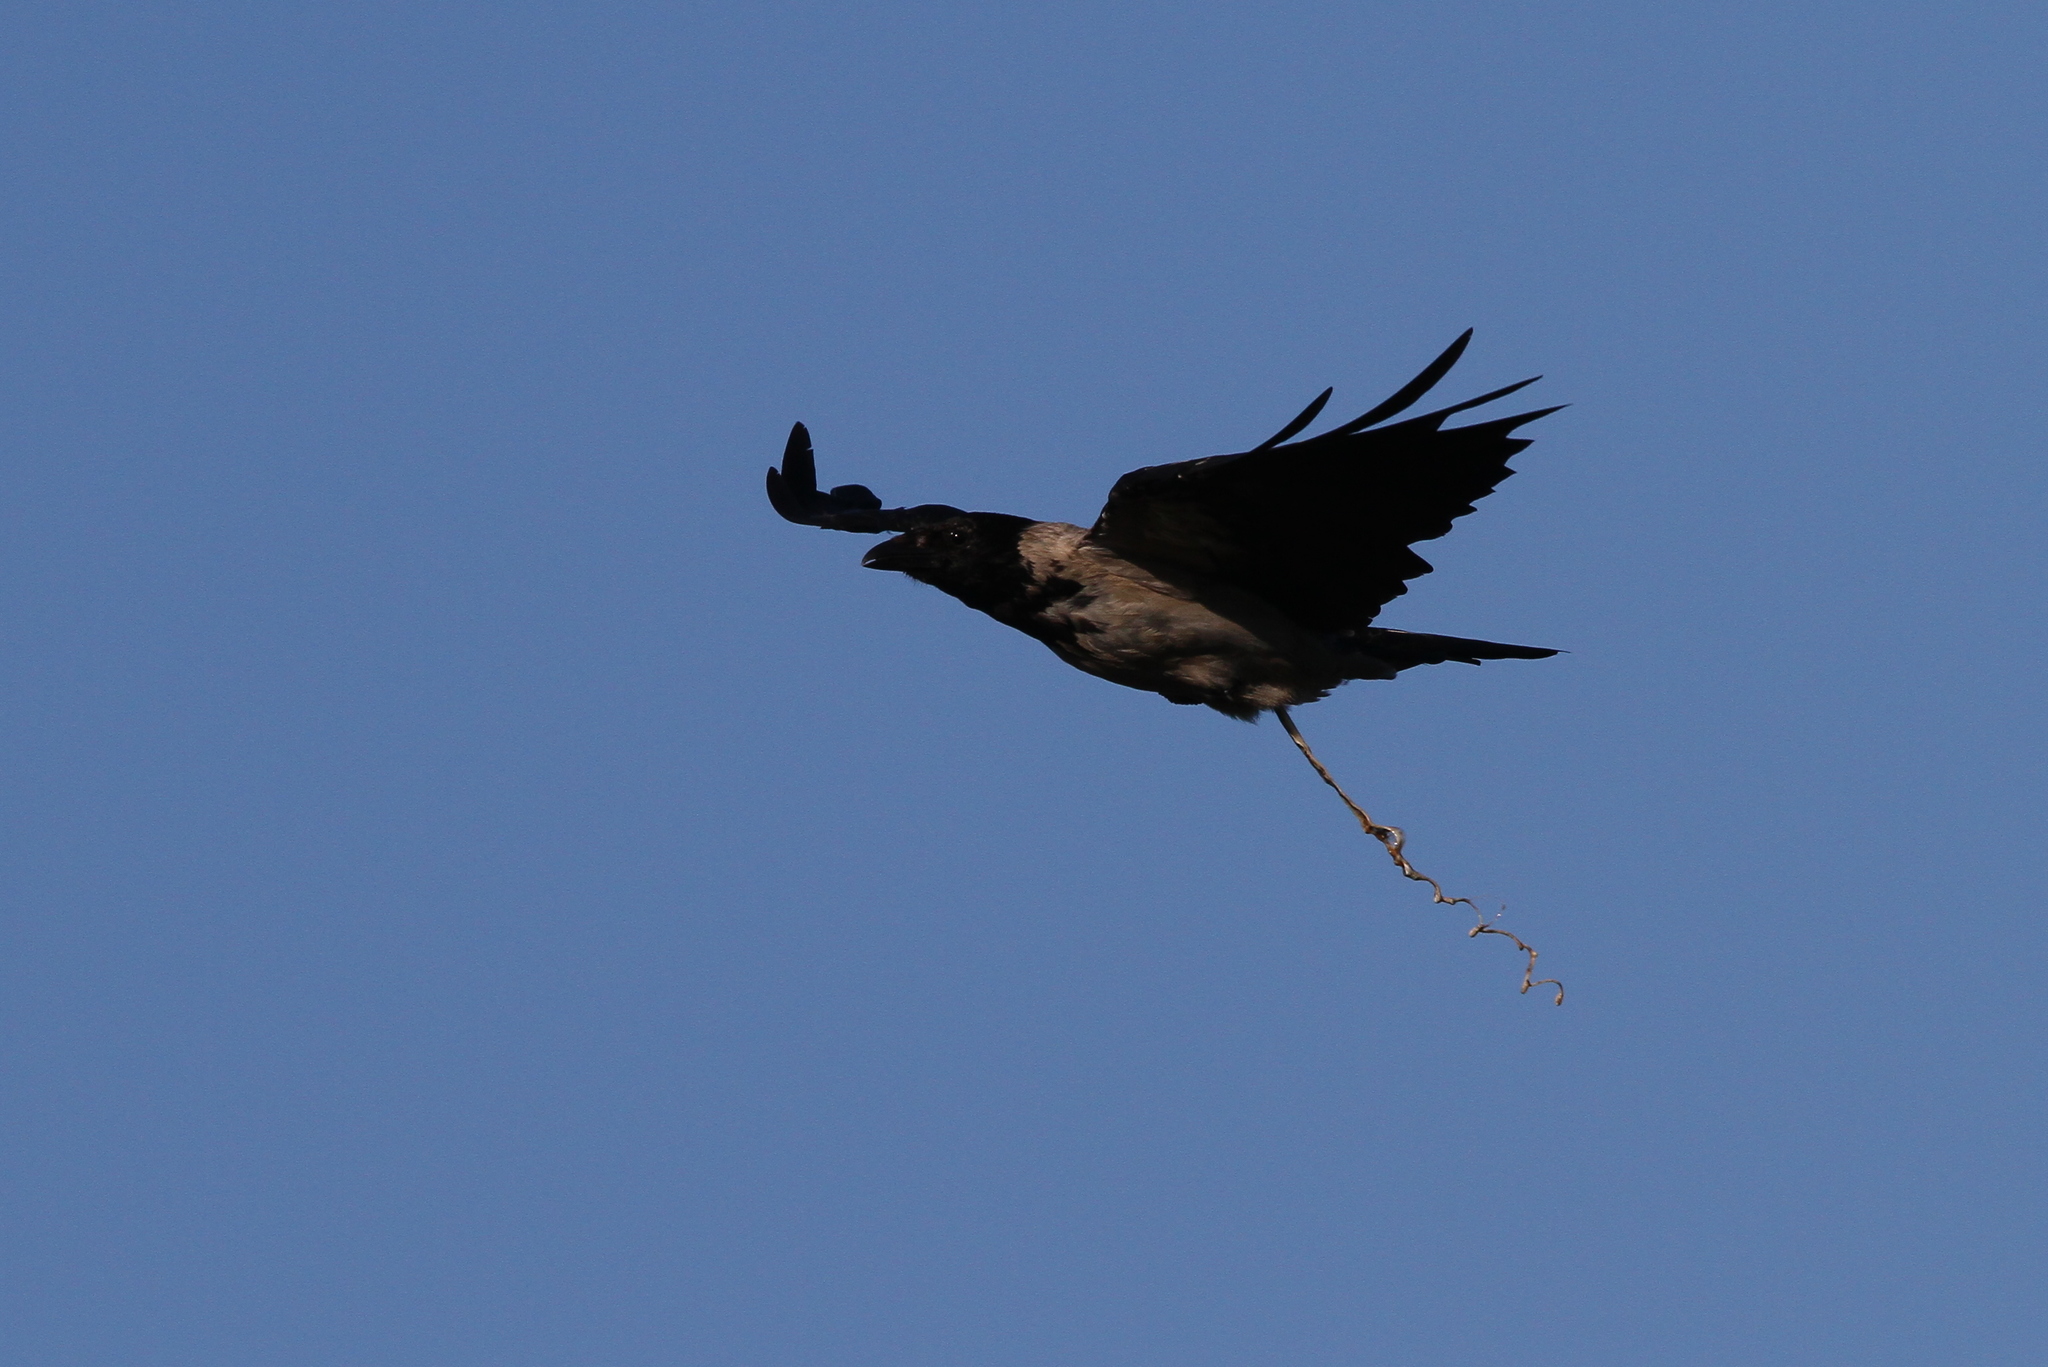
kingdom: Animalia
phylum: Chordata
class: Aves
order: Passeriformes
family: Corvidae
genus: Corvus
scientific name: Corvus cornix
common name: Hooded crow
